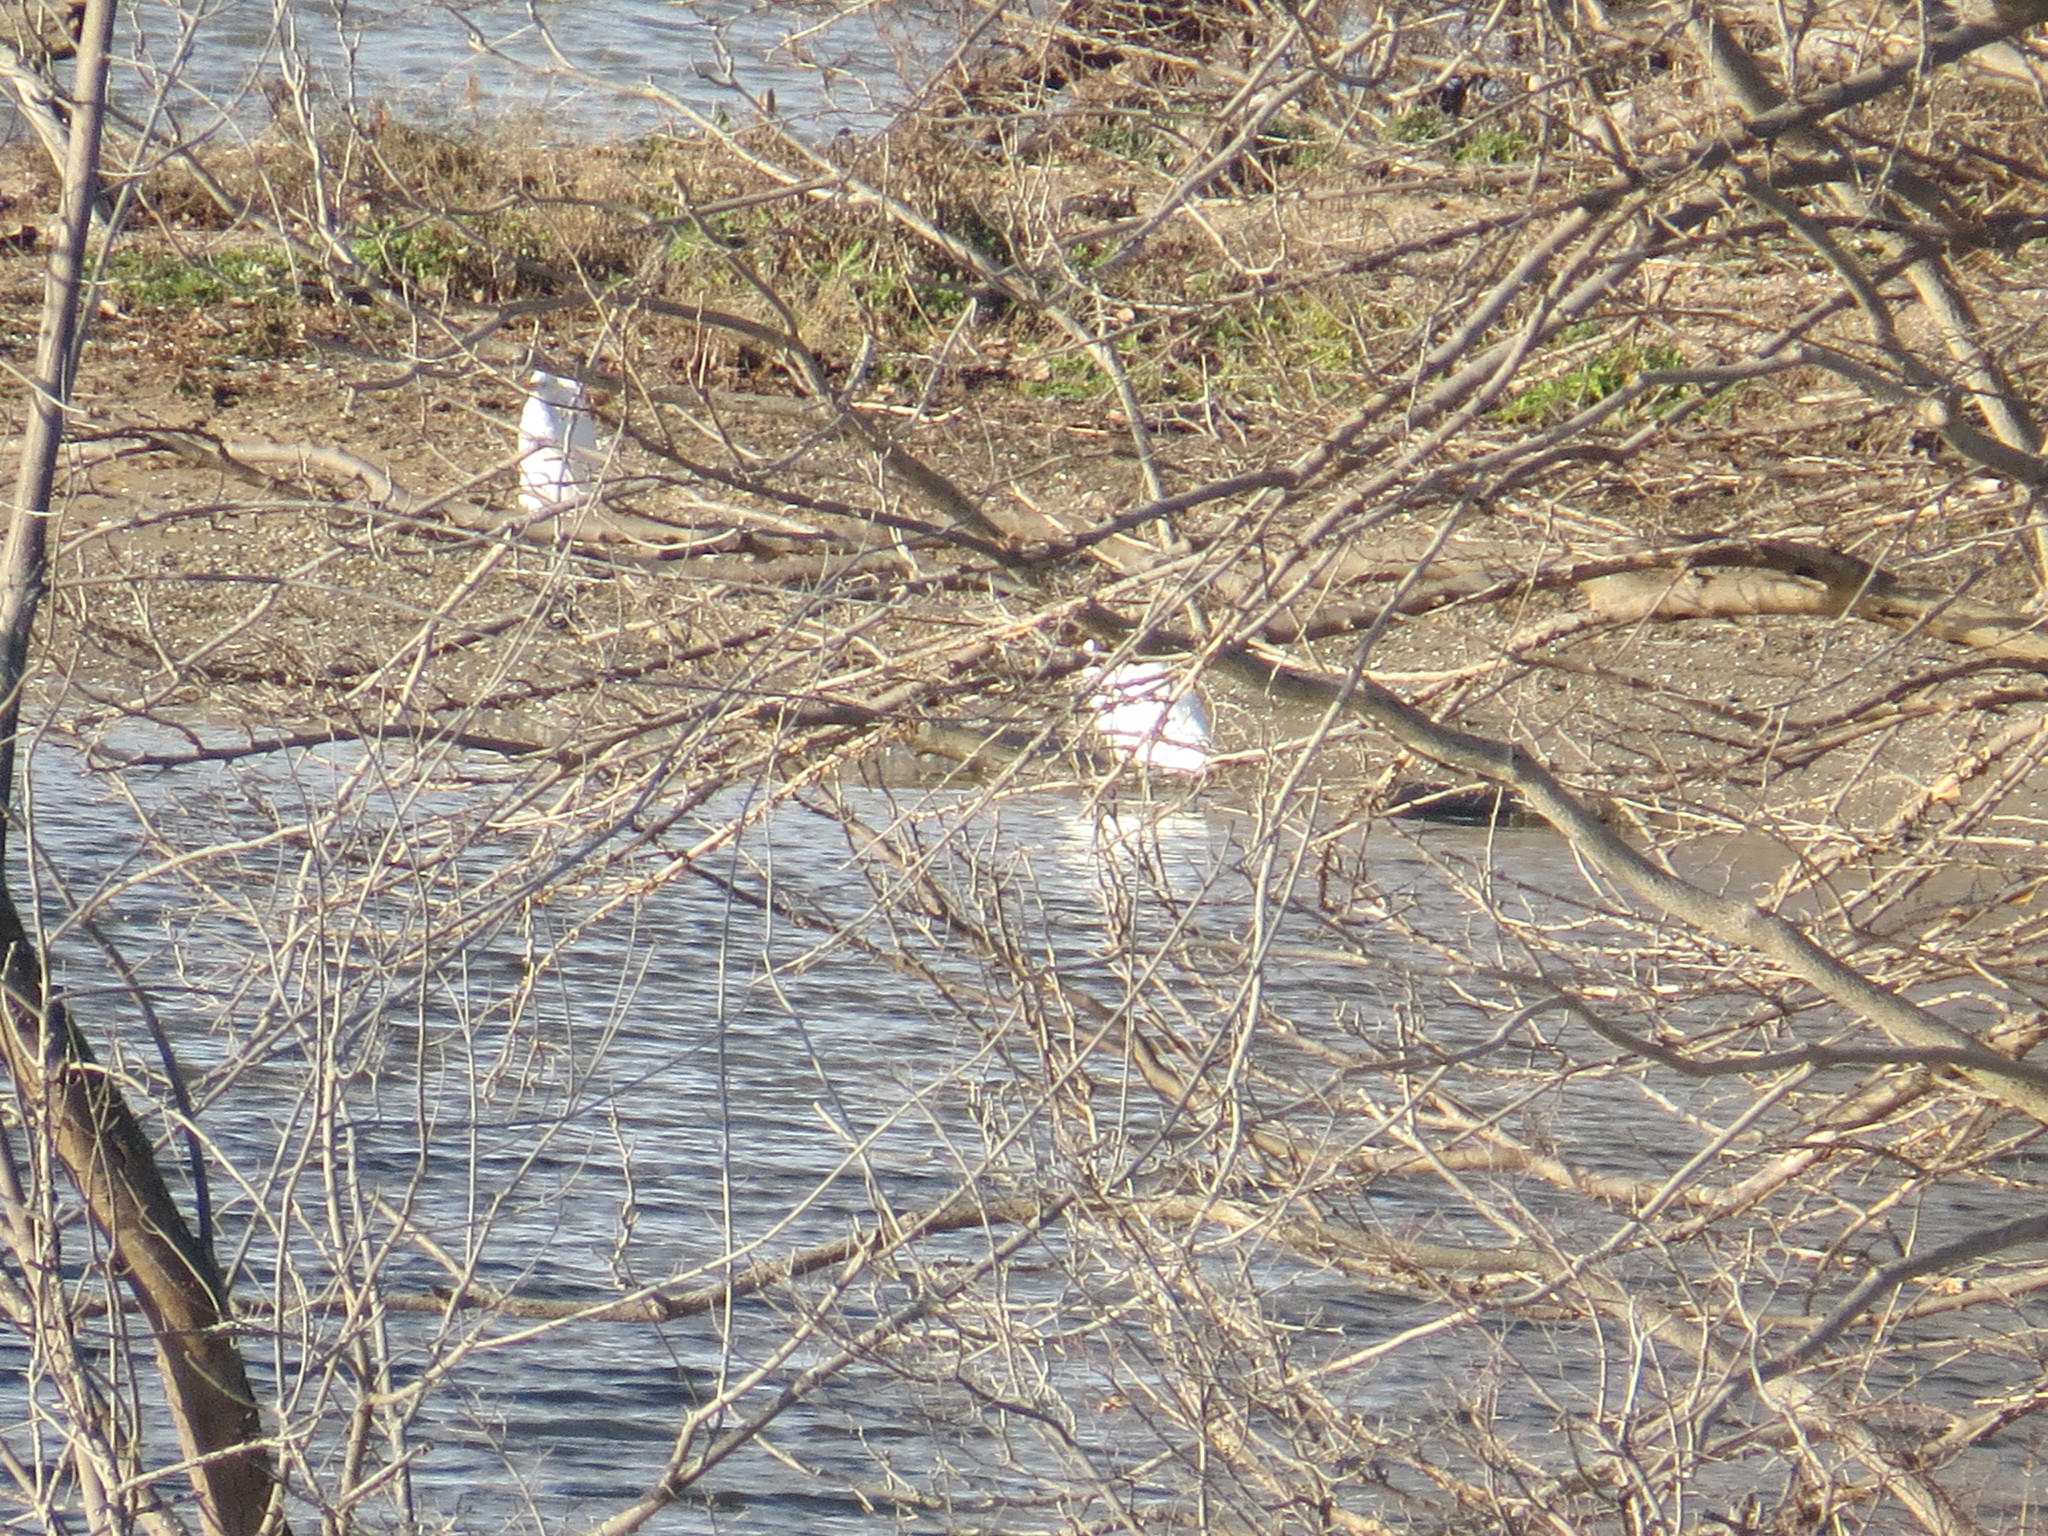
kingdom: Animalia
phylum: Chordata
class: Aves
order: Pelecaniformes
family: Ardeidae
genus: Ardea
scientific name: Ardea alba
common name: Great egret
